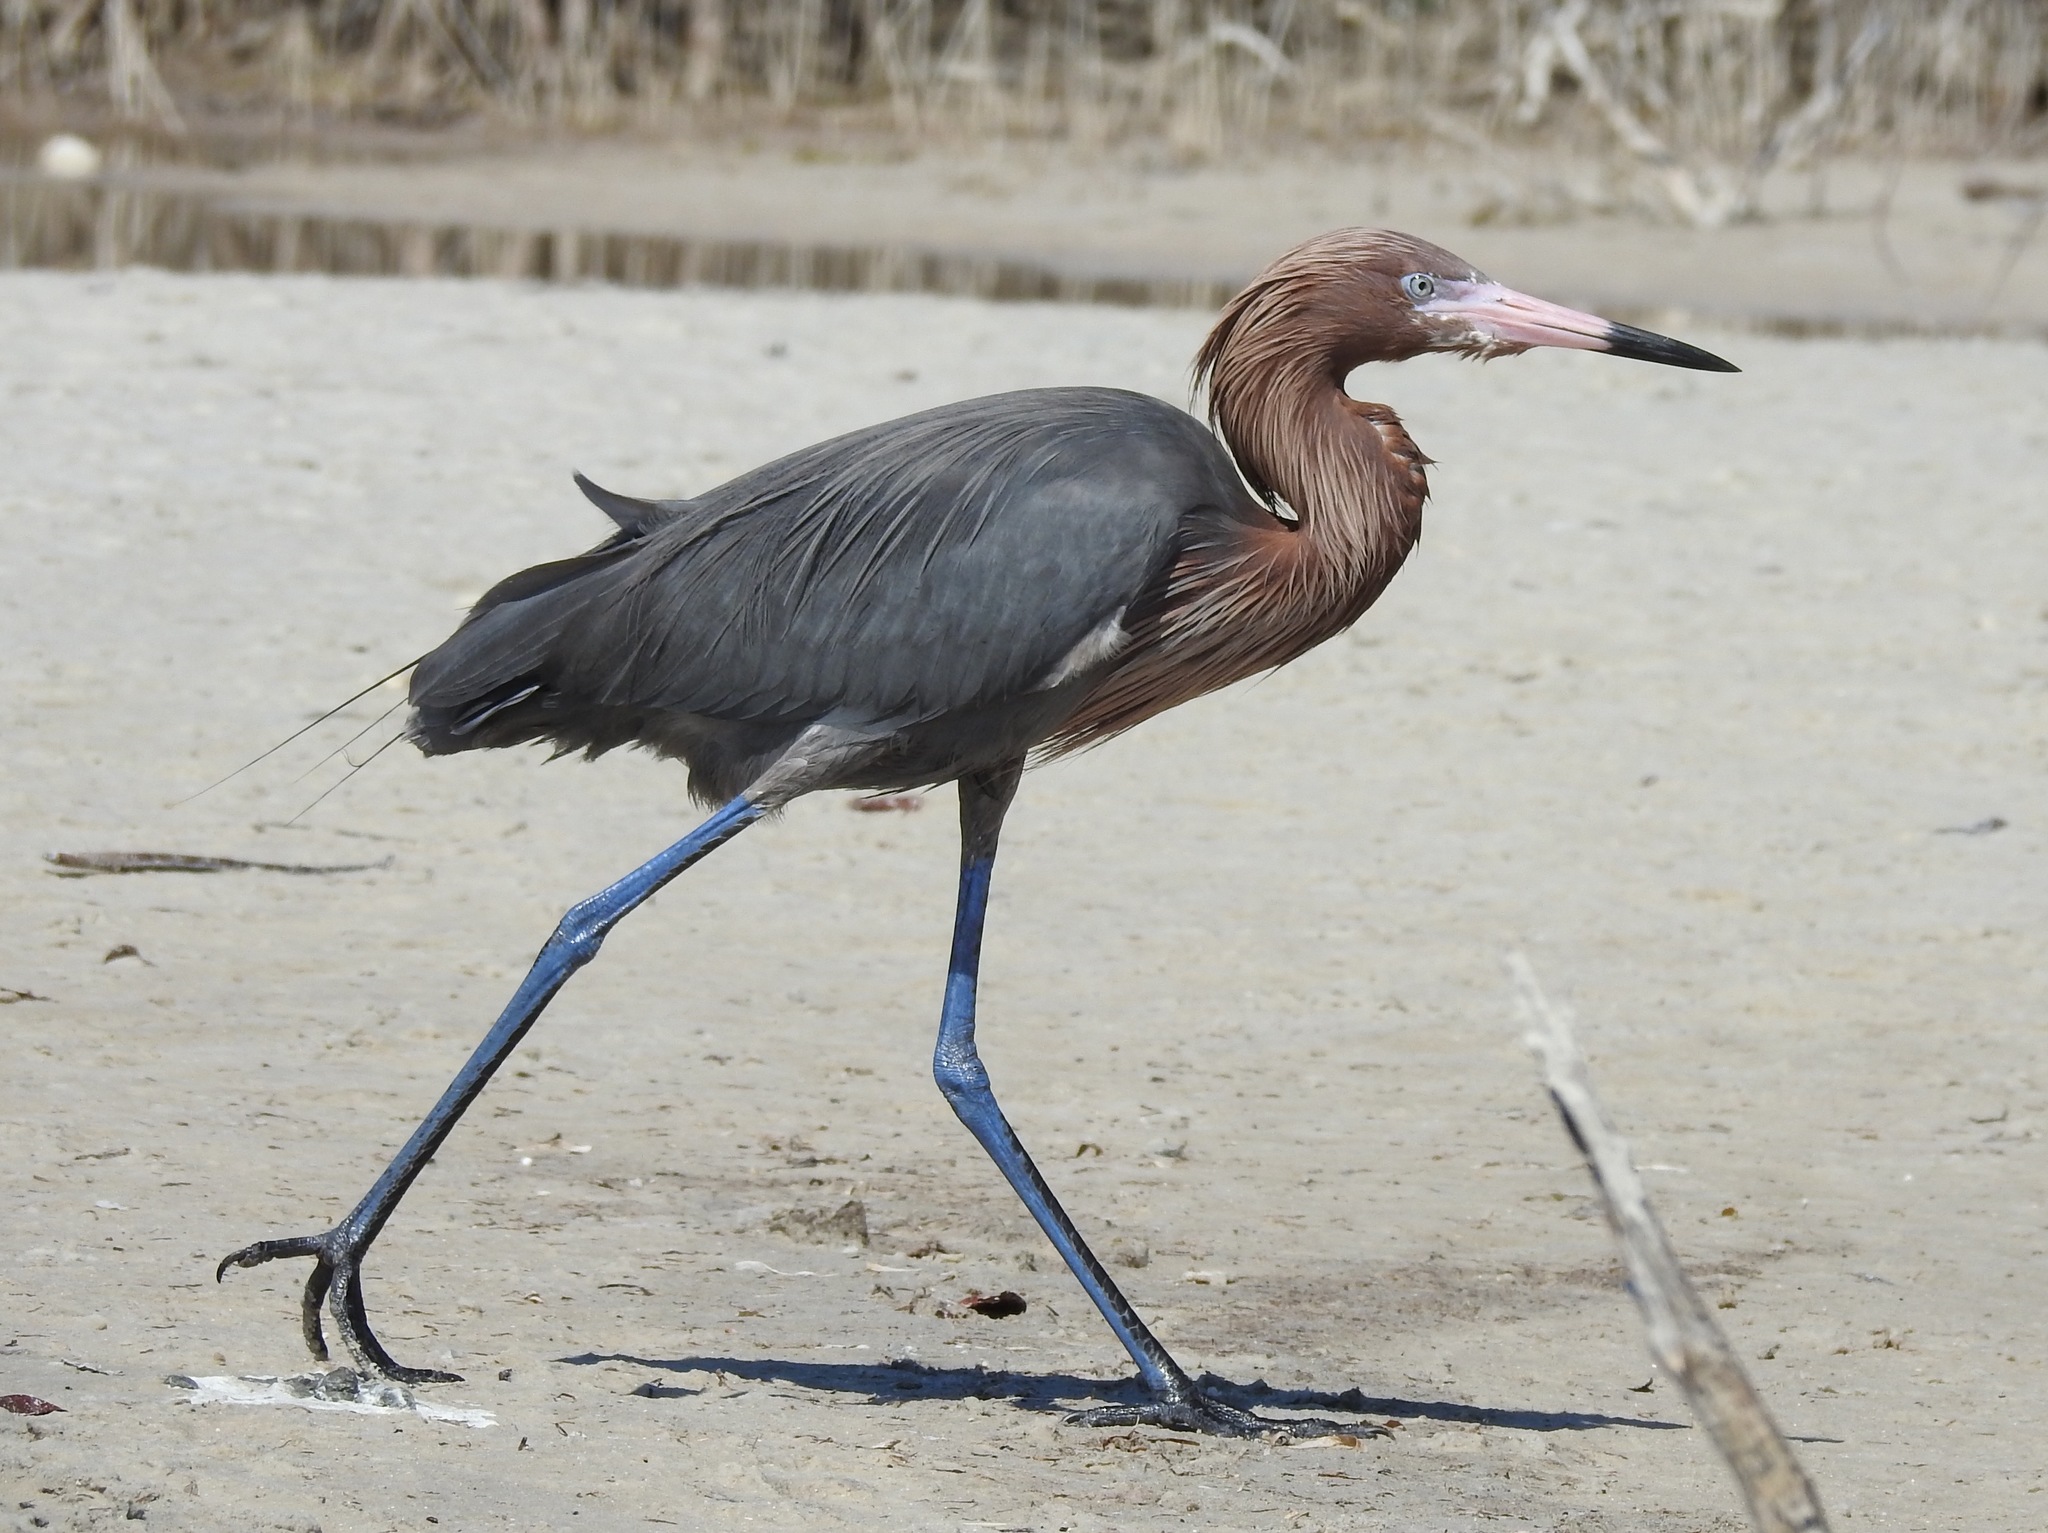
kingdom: Animalia
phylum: Chordata
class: Aves
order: Pelecaniformes
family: Ardeidae
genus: Egretta
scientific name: Egretta rufescens
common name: Reddish egret
